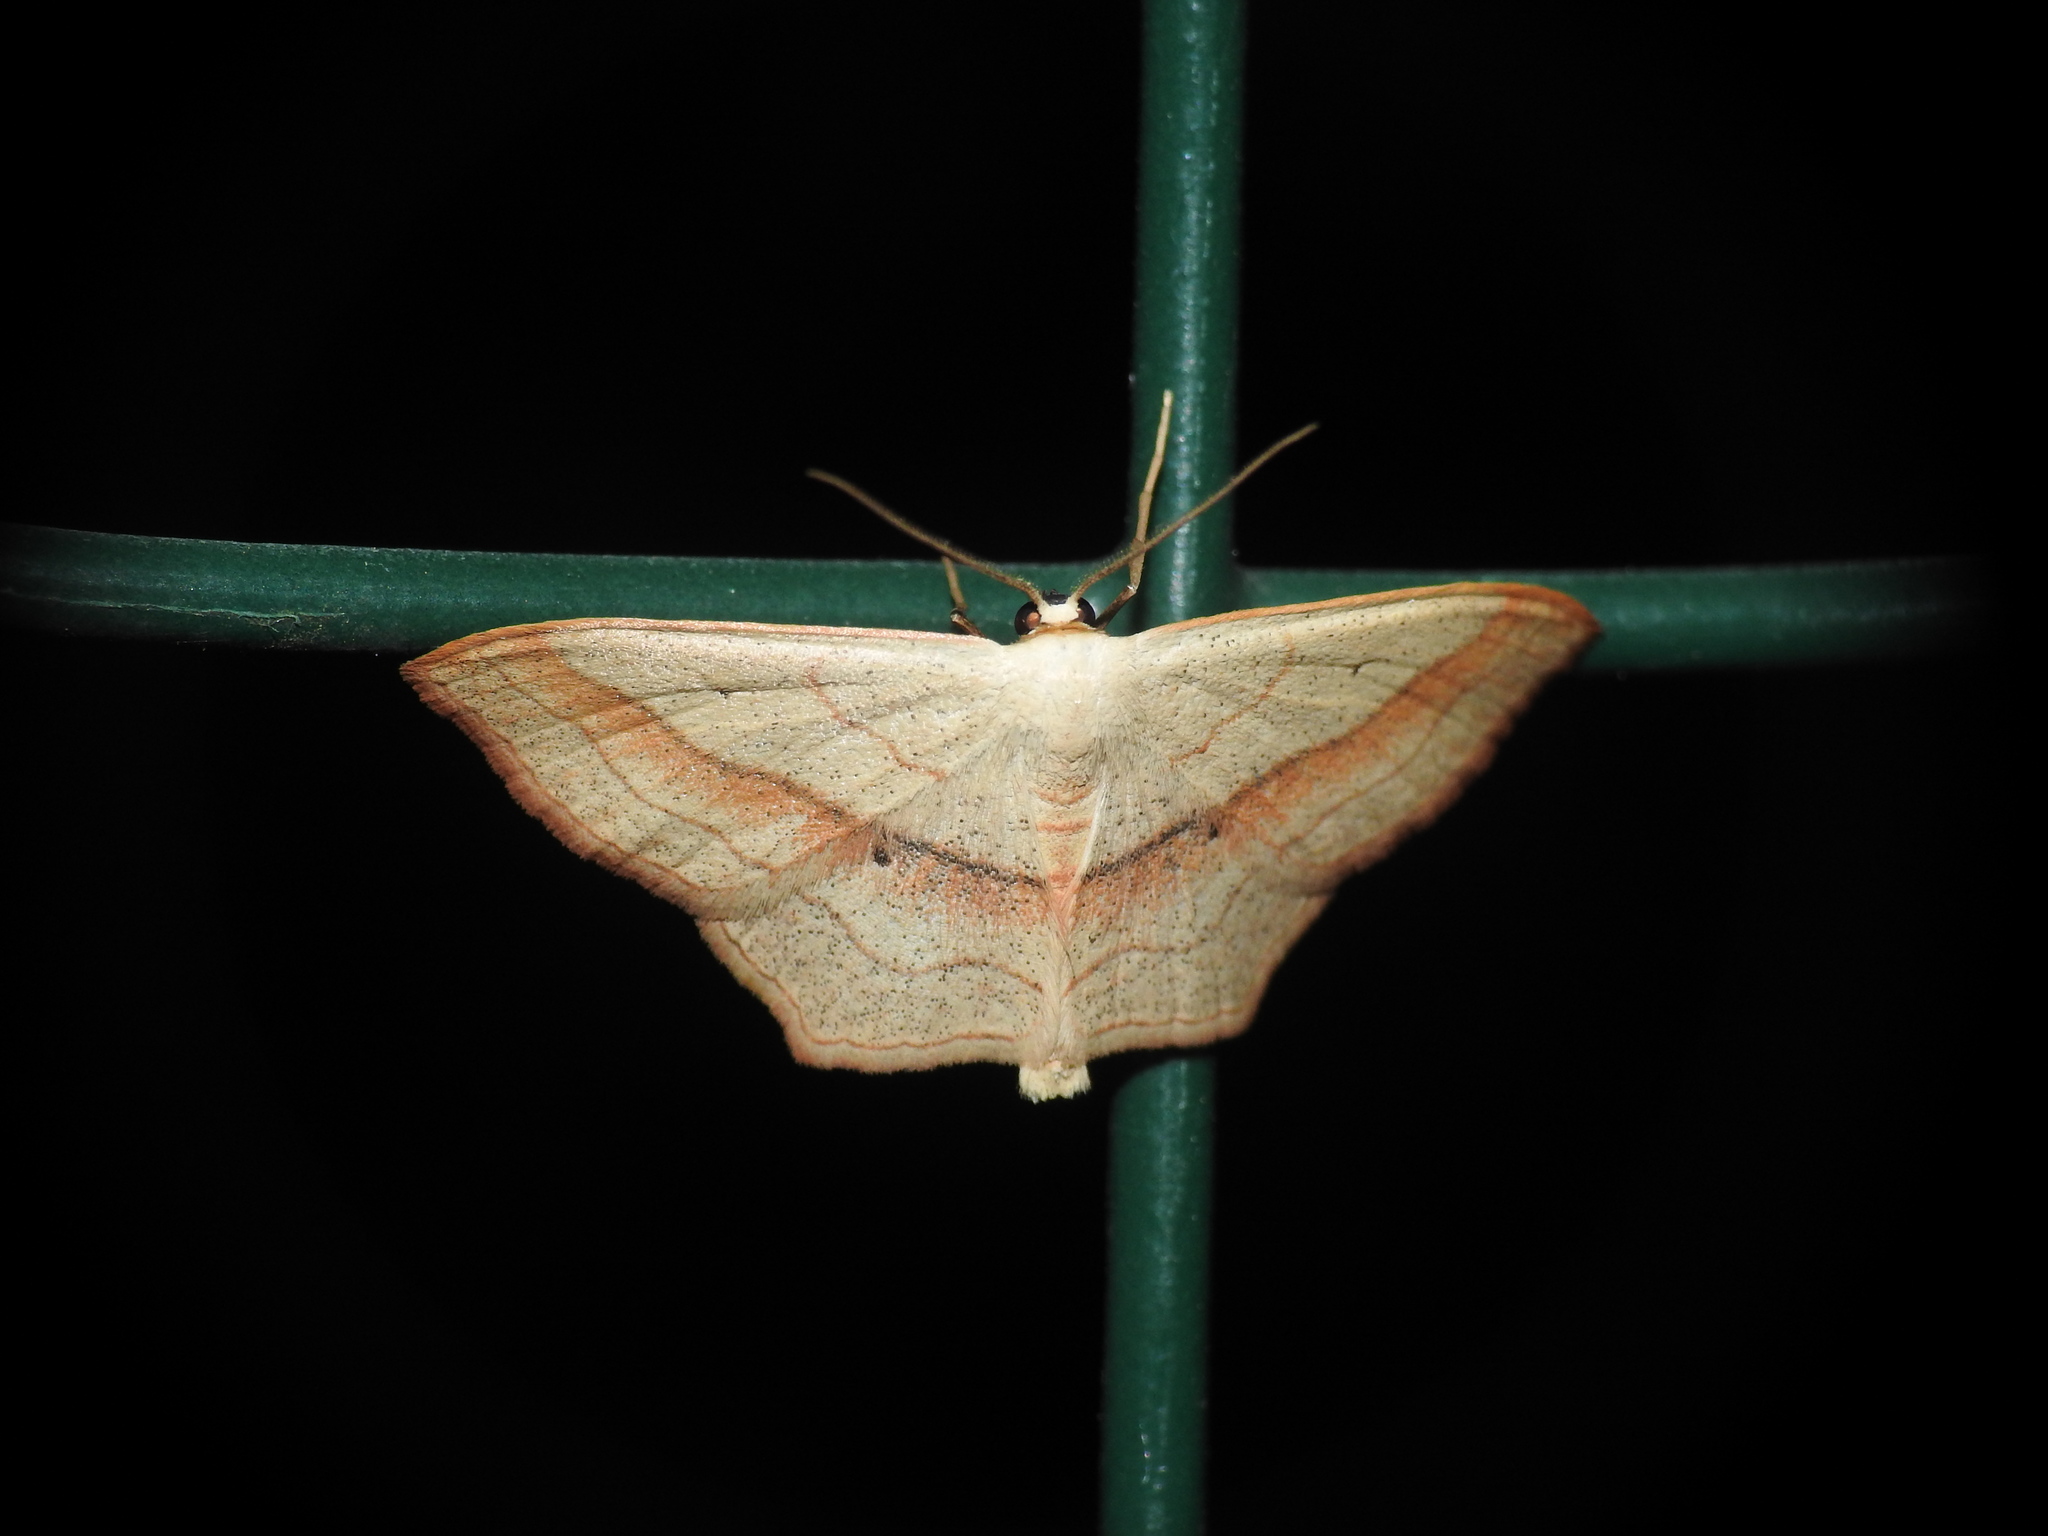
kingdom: Animalia
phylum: Arthropoda
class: Insecta
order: Lepidoptera
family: Geometridae
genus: Scopula
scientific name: Scopula imitaria
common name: Small blood-vein
